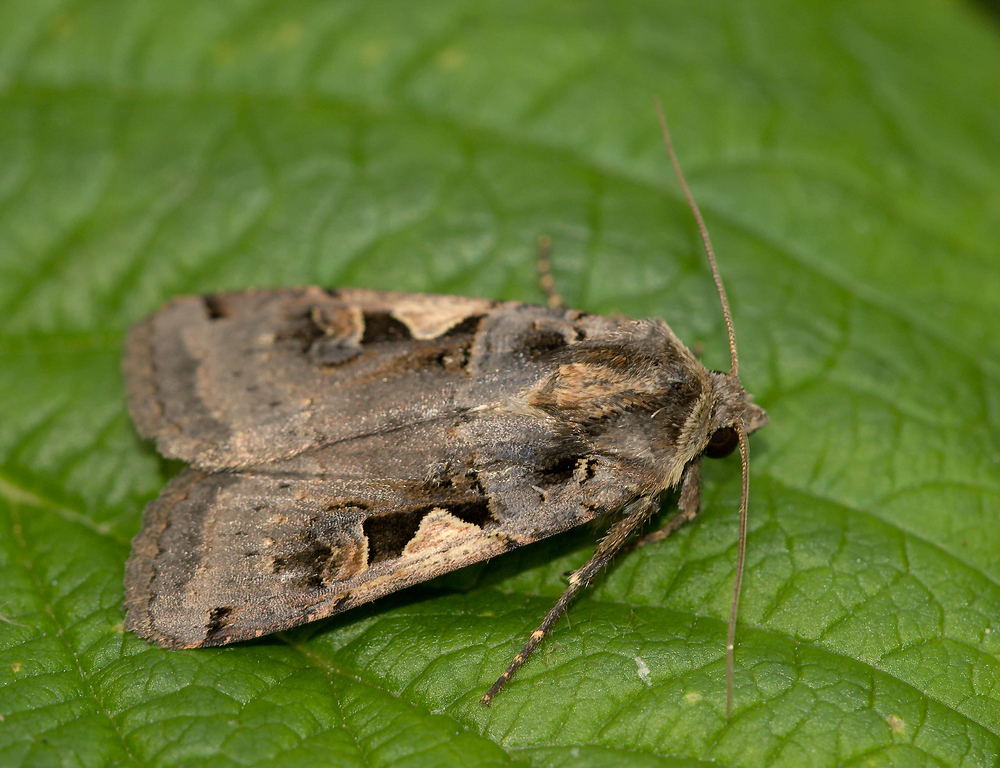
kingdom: Animalia
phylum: Arthropoda
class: Insecta
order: Lepidoptera
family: Noctuidae
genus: Xestia
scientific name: Xestia c-nigrum
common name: Setaceous hebrew character
